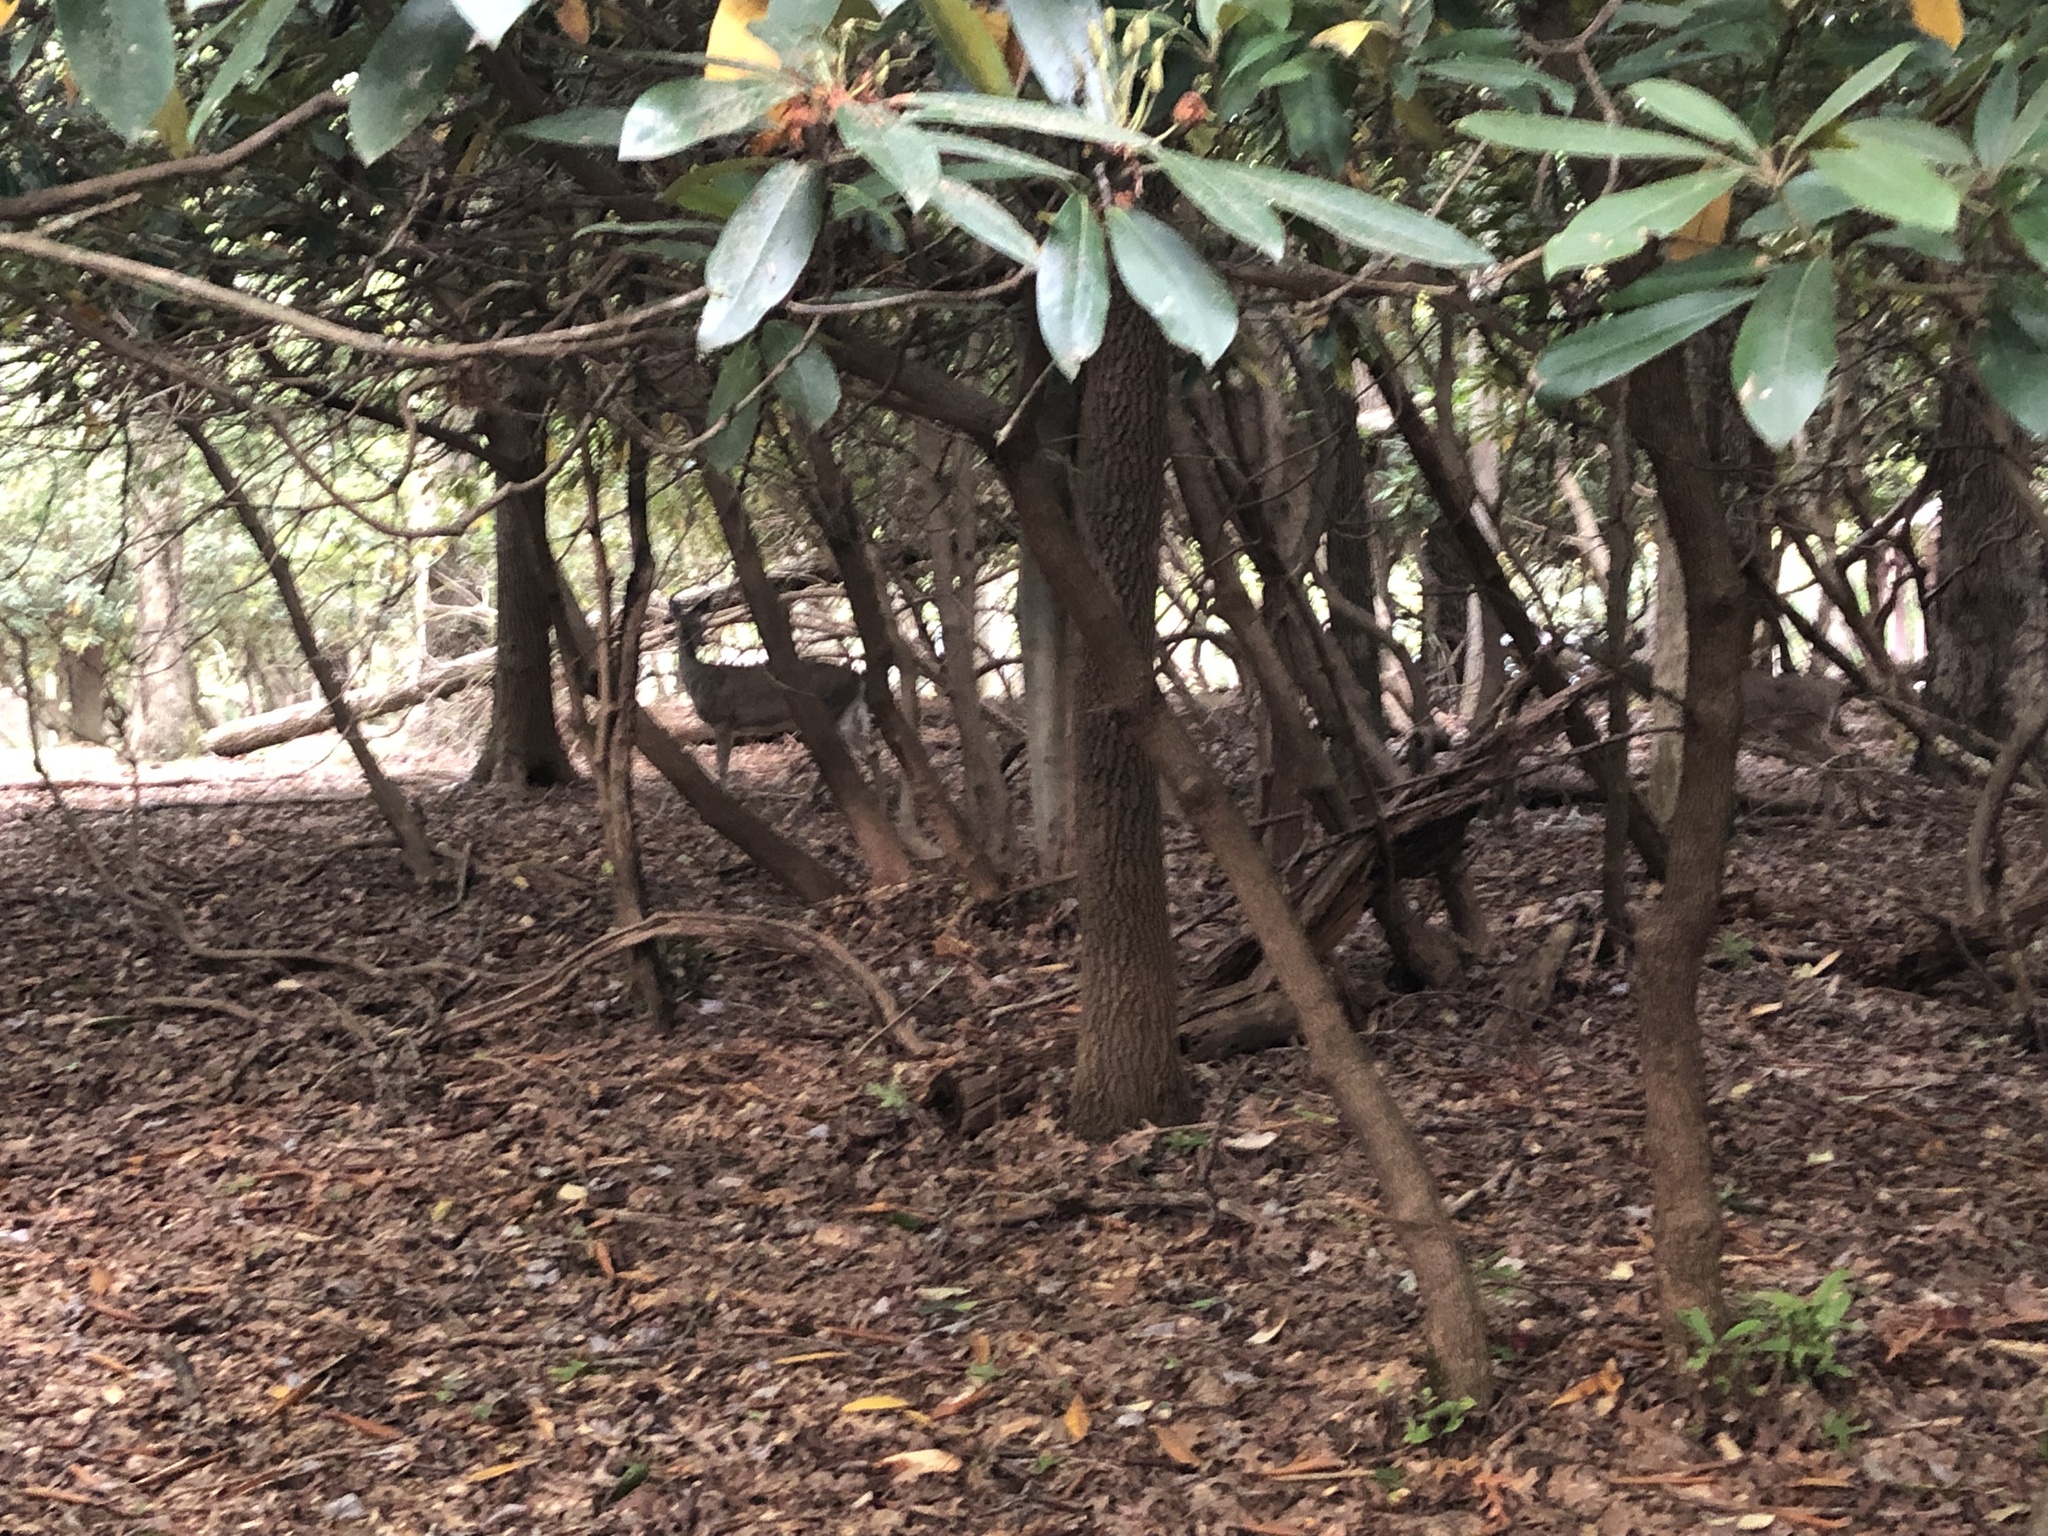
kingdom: Animalia
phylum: Chordata
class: Mammalia
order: Artiodactyla
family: Cervidae
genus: Odocoileus
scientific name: Odocoileus virginianus
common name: White-tailed deer
